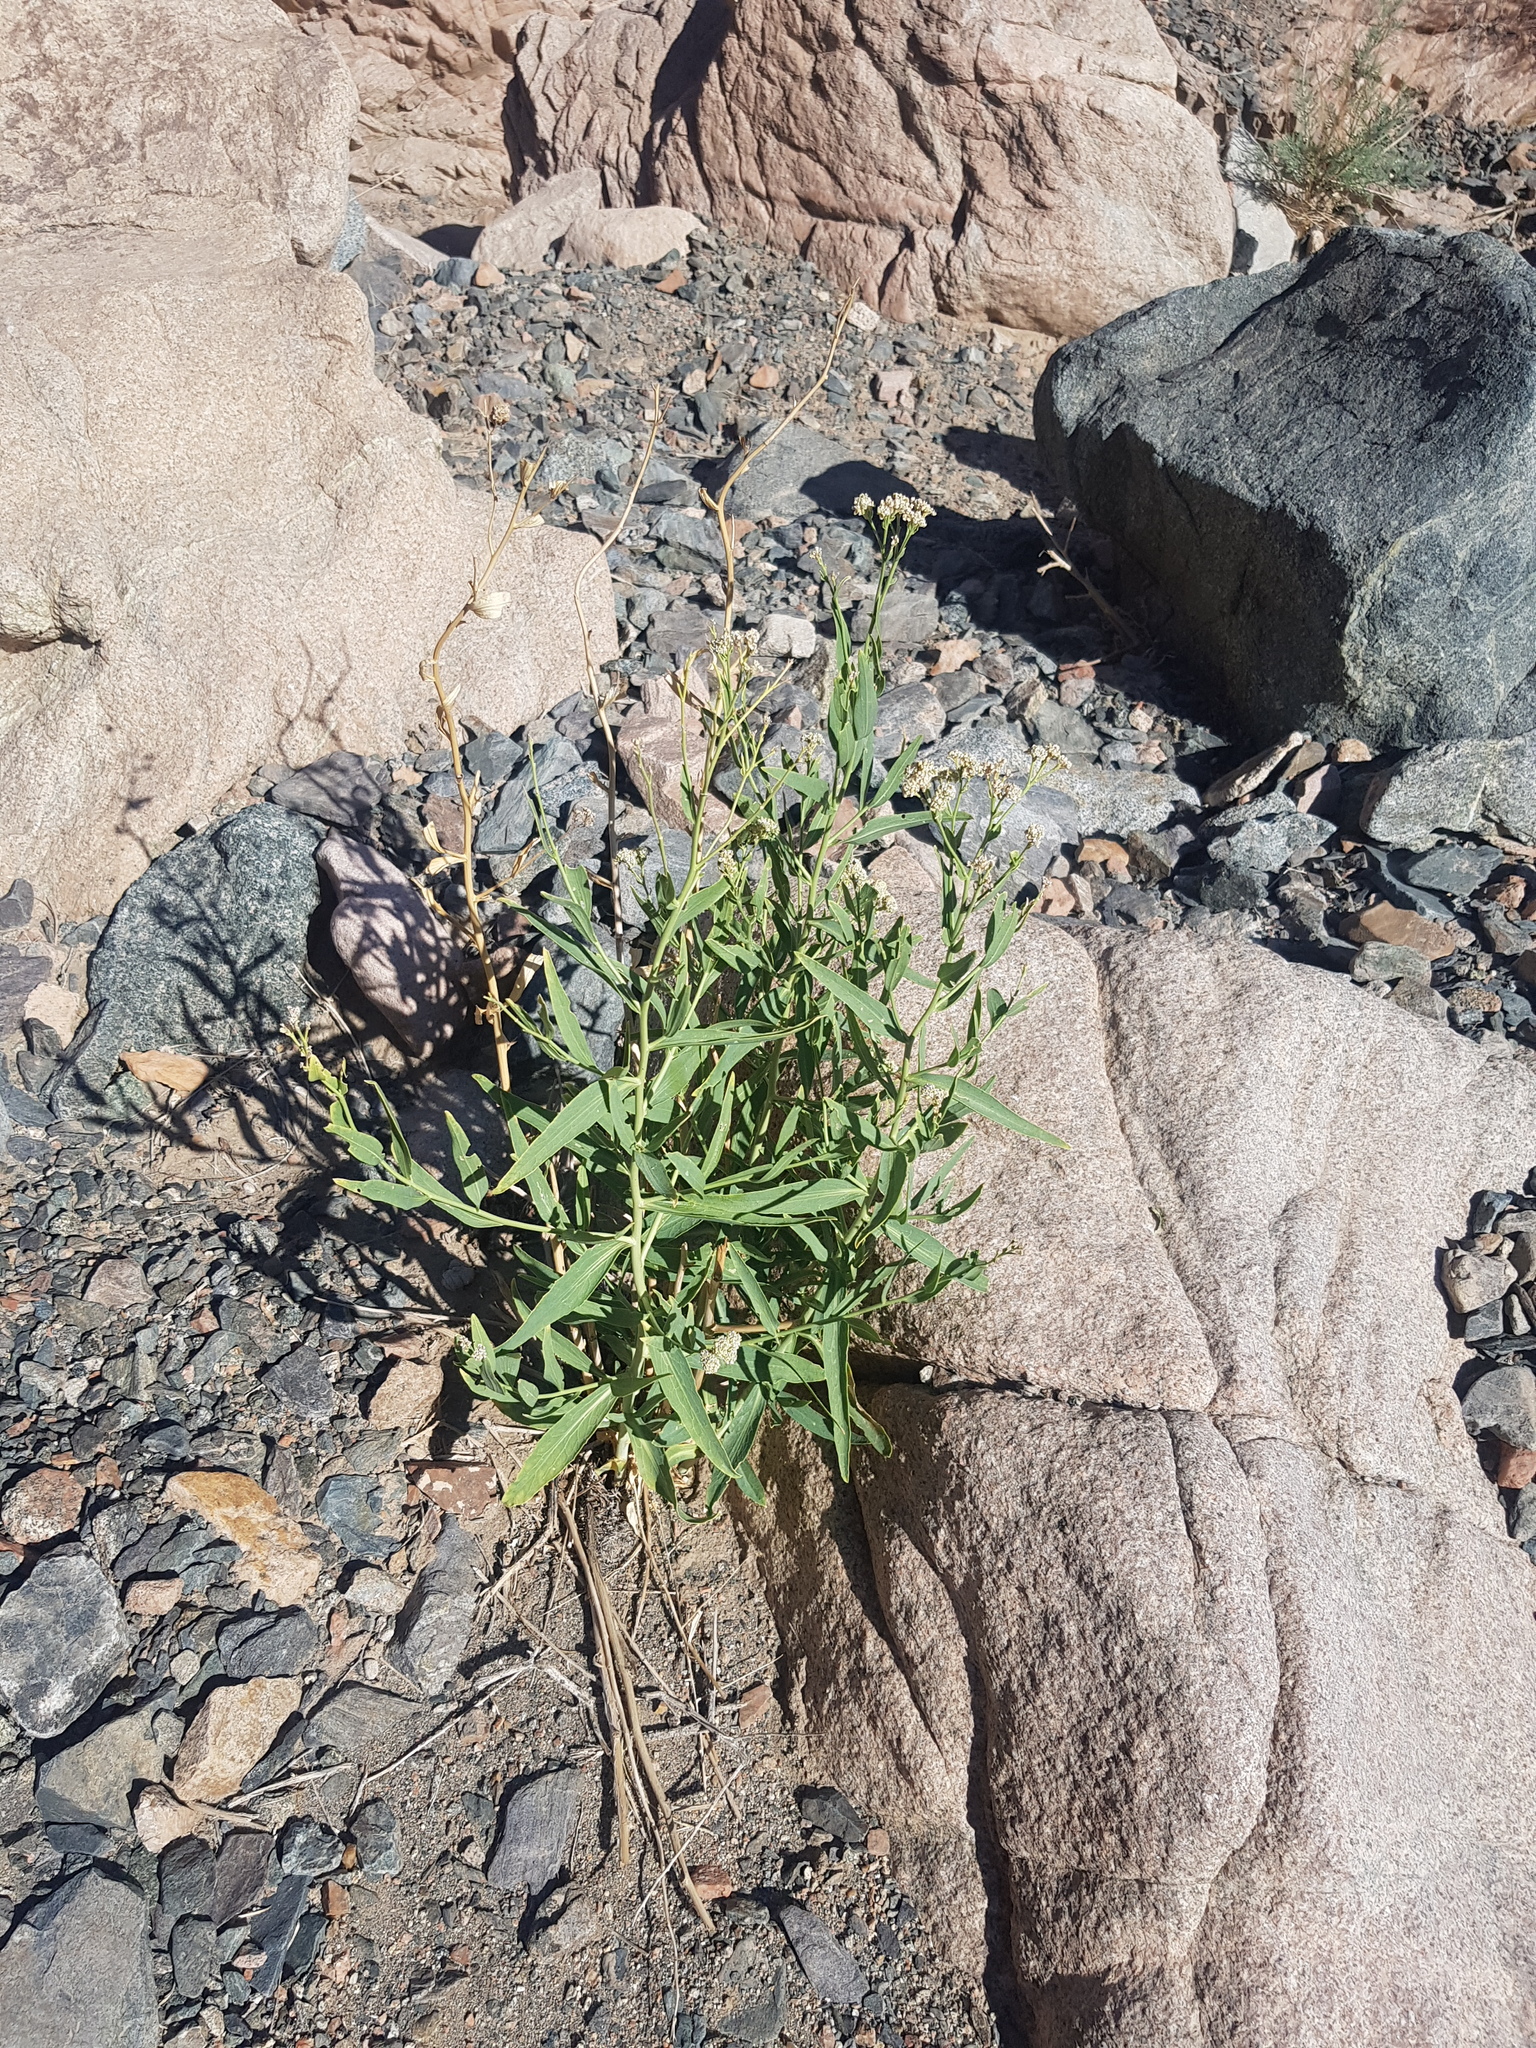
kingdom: Plantae
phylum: Tracheophyta
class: Magnoliopsida
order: Brassicales
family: Brassicaceae
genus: Dontostemon
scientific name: Dontostemon elegans
